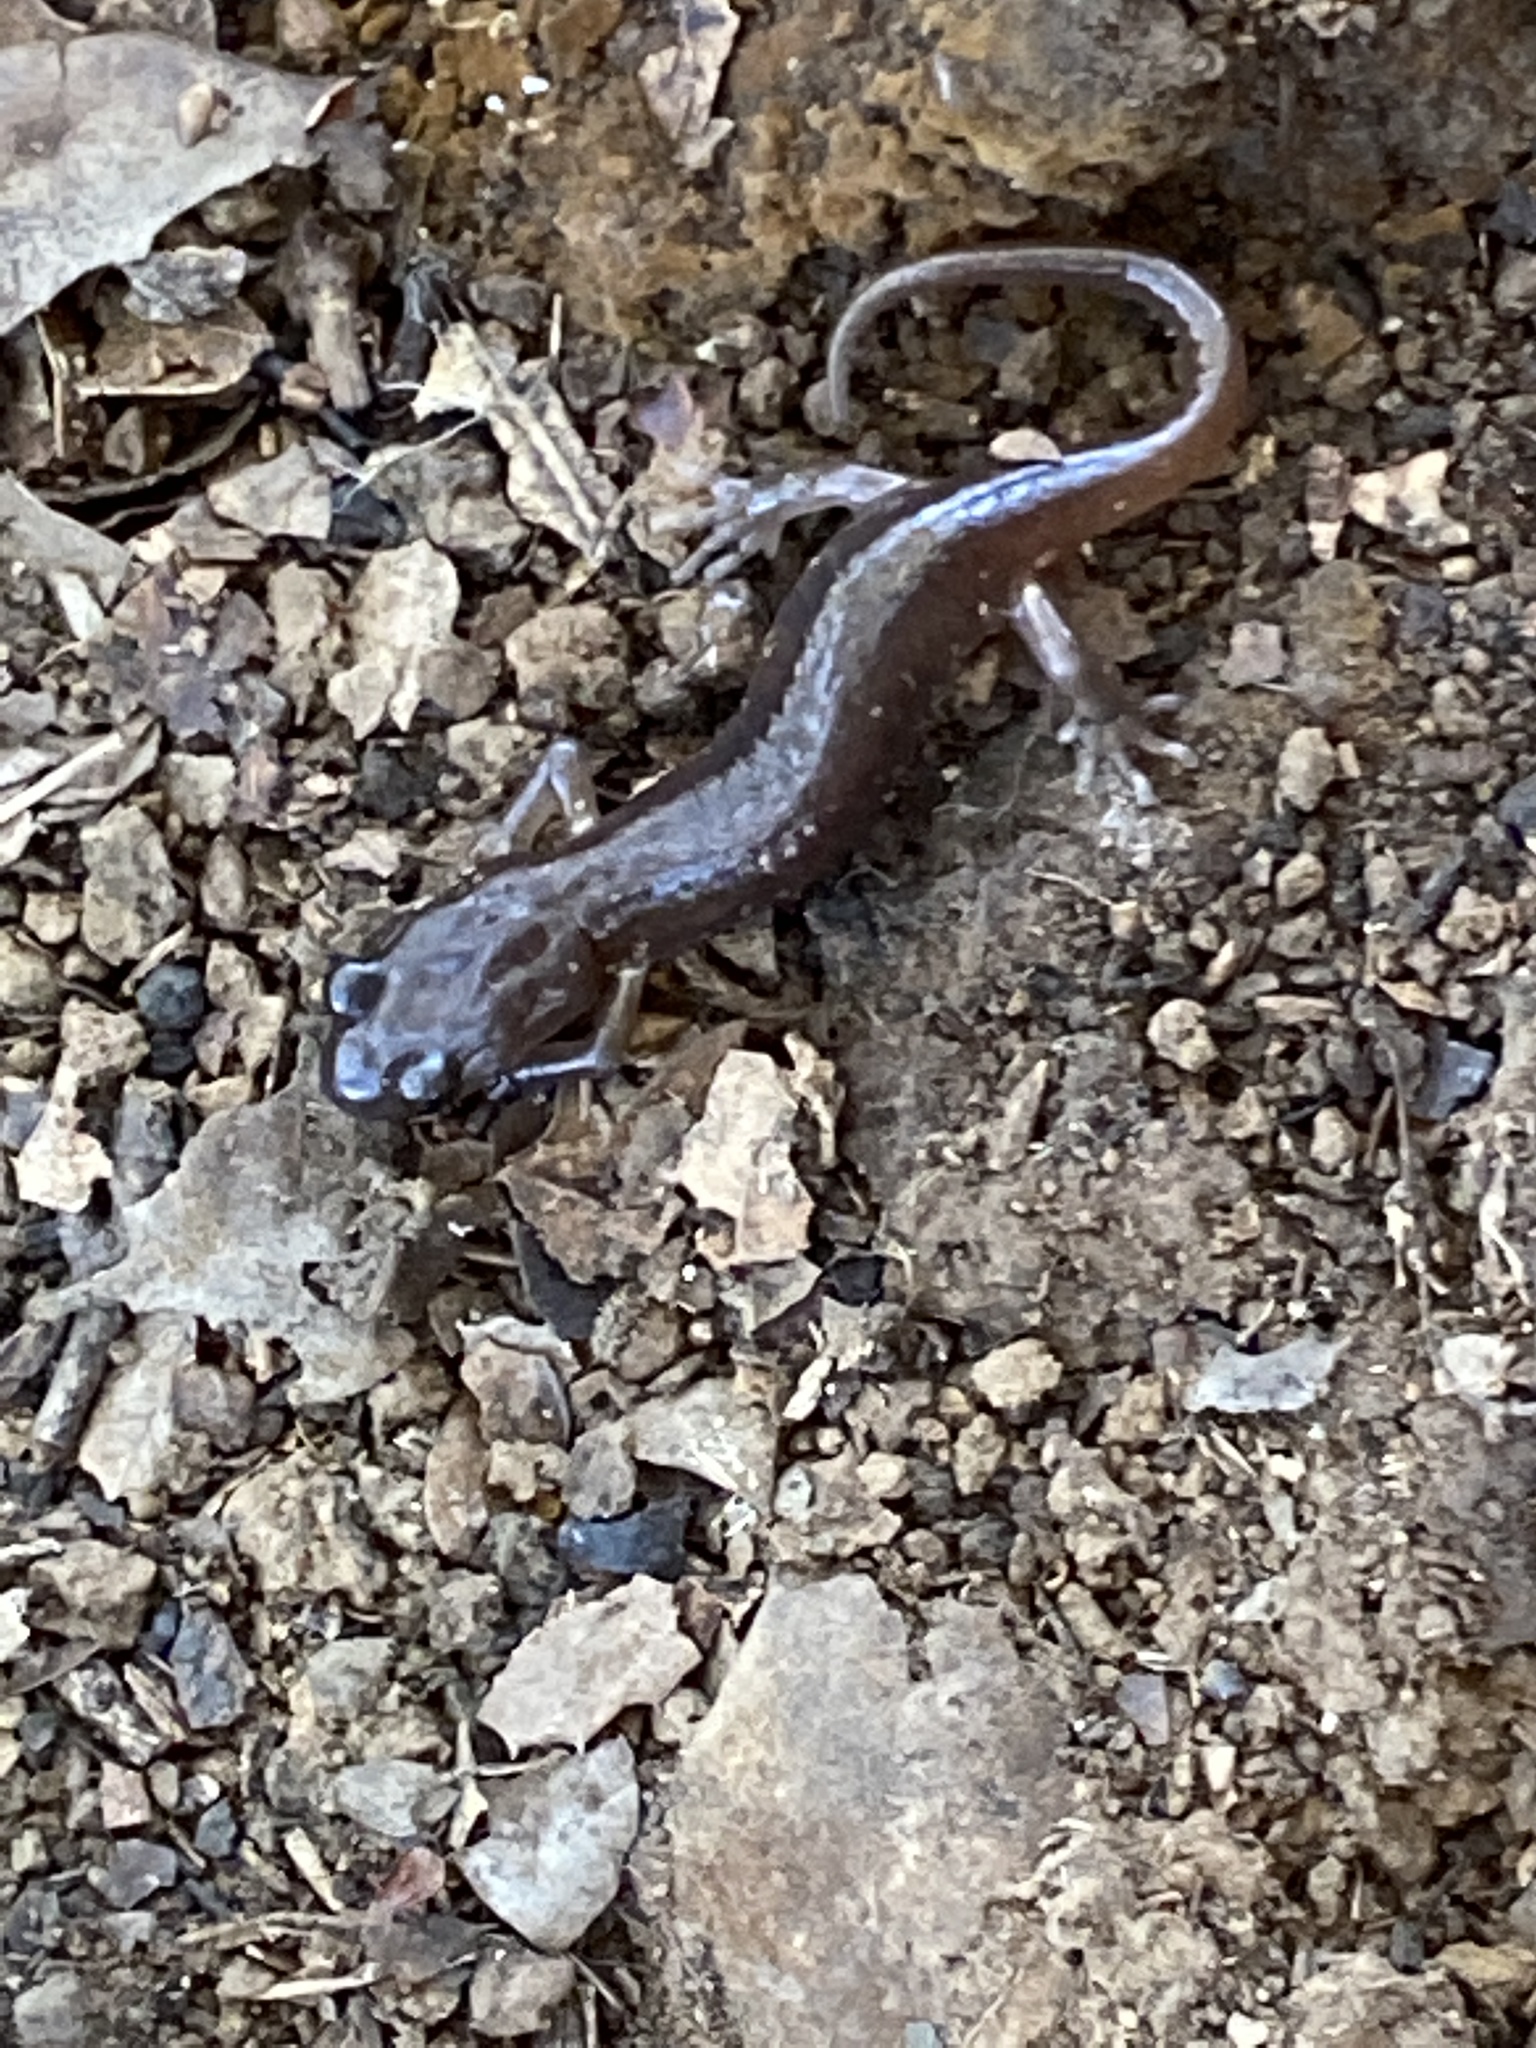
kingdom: Animalia
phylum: Chordata
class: Amphibia
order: Caudata
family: Plethodontidae
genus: Aneides
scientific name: Aneides lugubris
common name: Arboreal salamander
